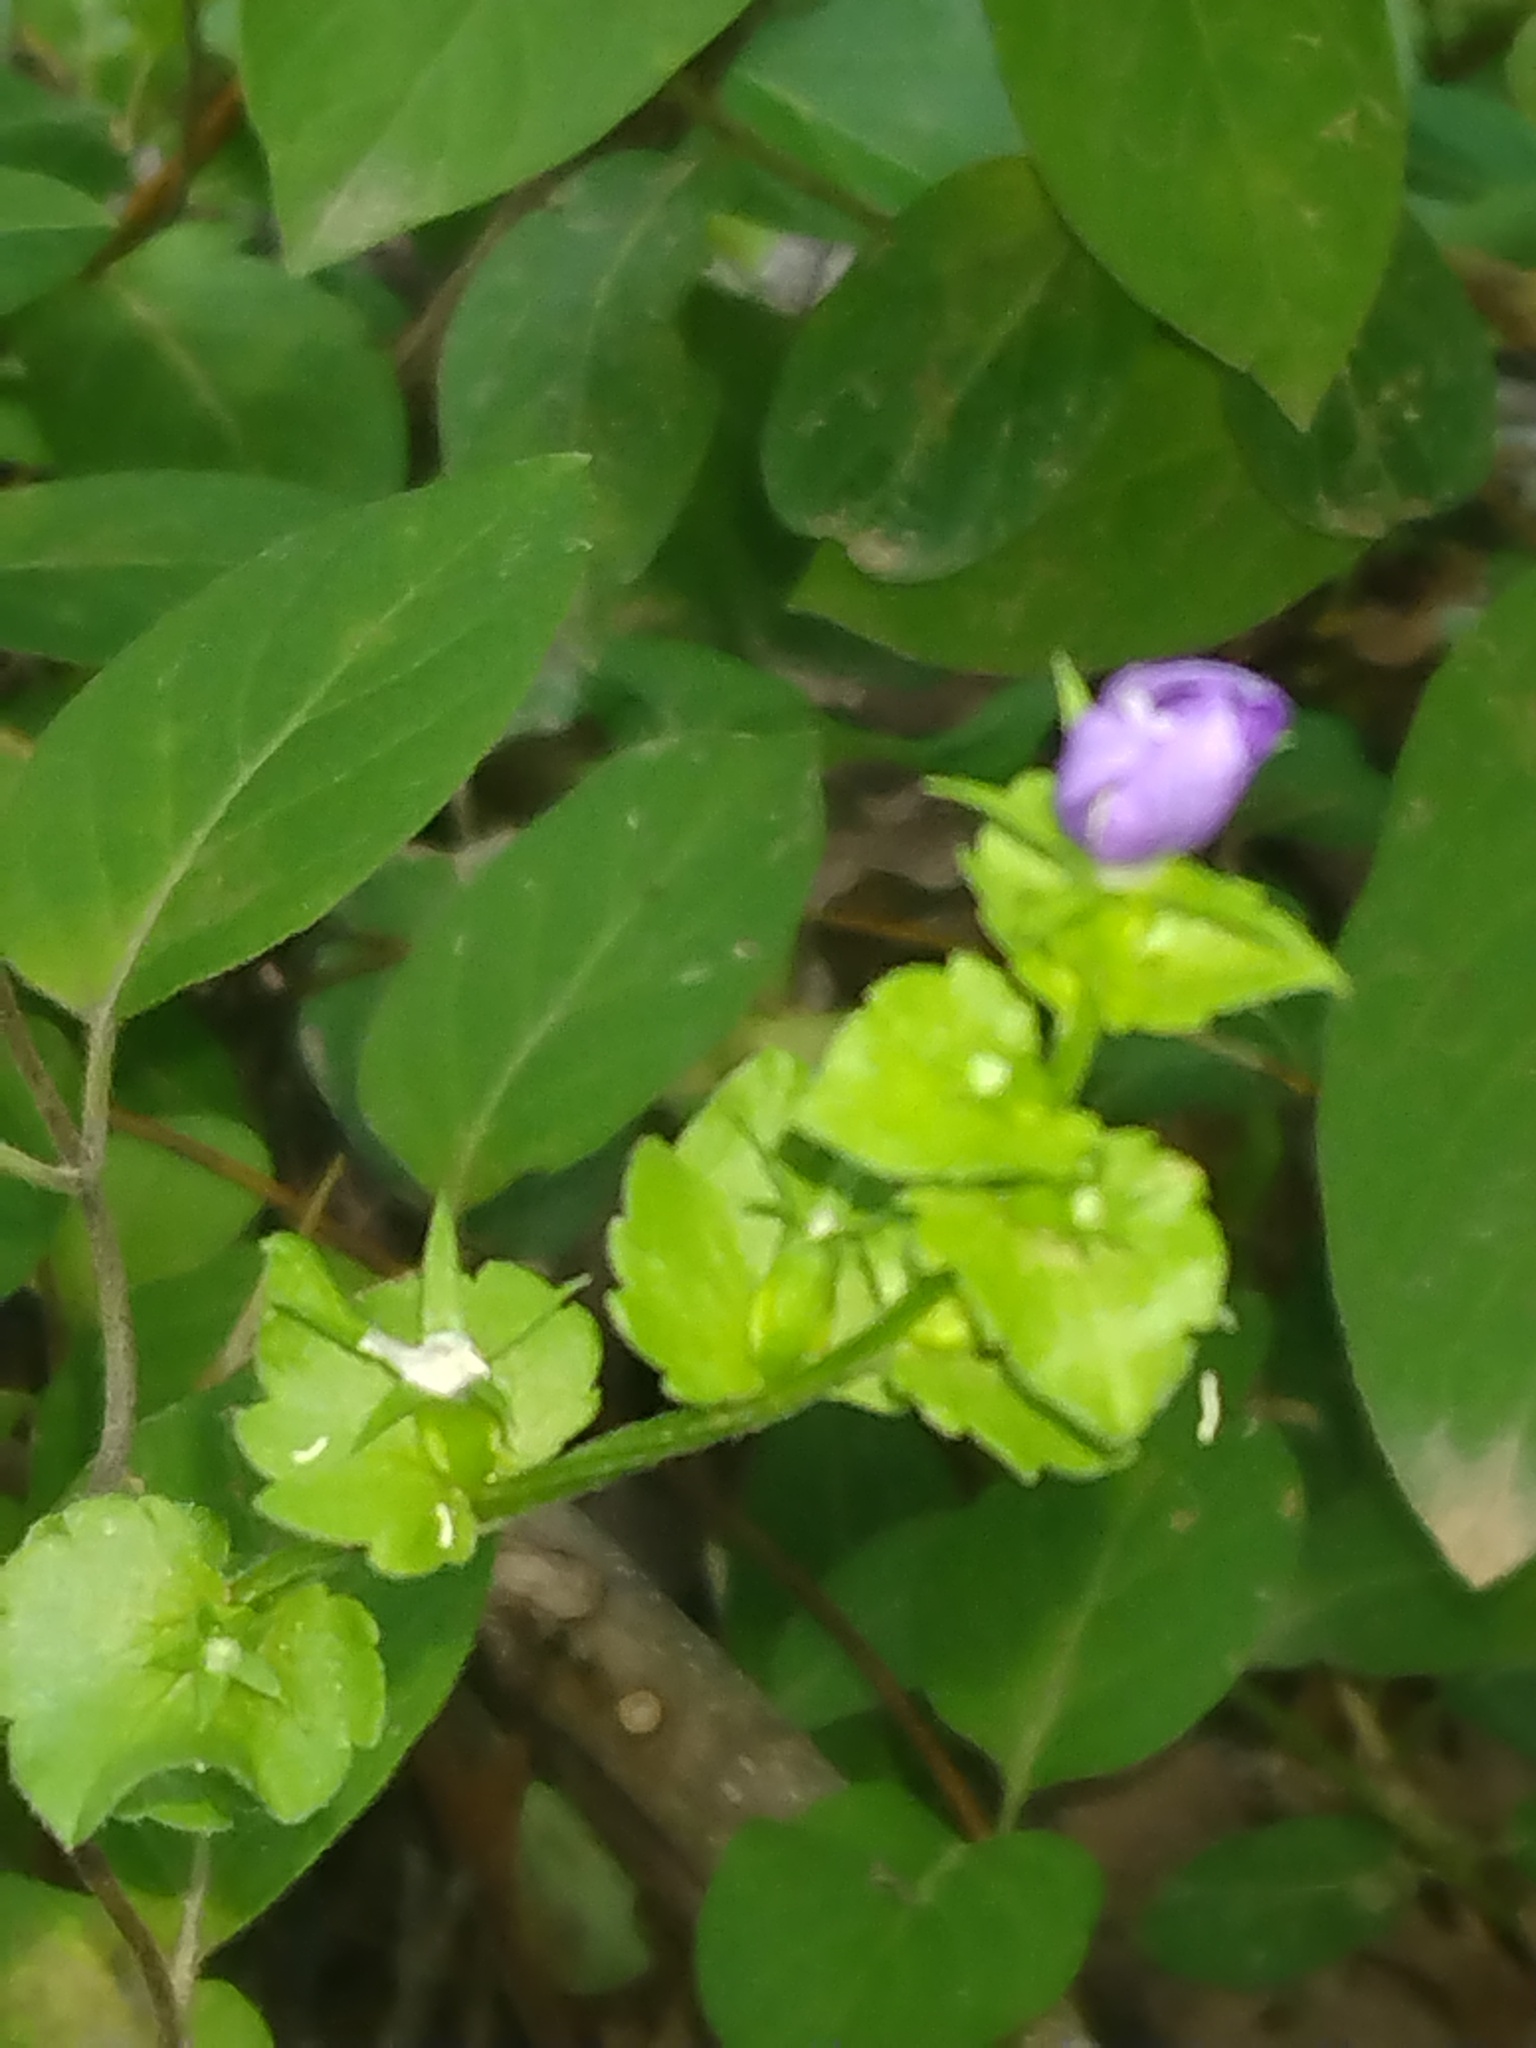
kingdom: Plantae
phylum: Tracheophyta
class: Magnoliopsida
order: Asterales
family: Campanulaceae
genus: Triodanis
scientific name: Triodanis perfoliata
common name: Clasping venus' looking-glass
